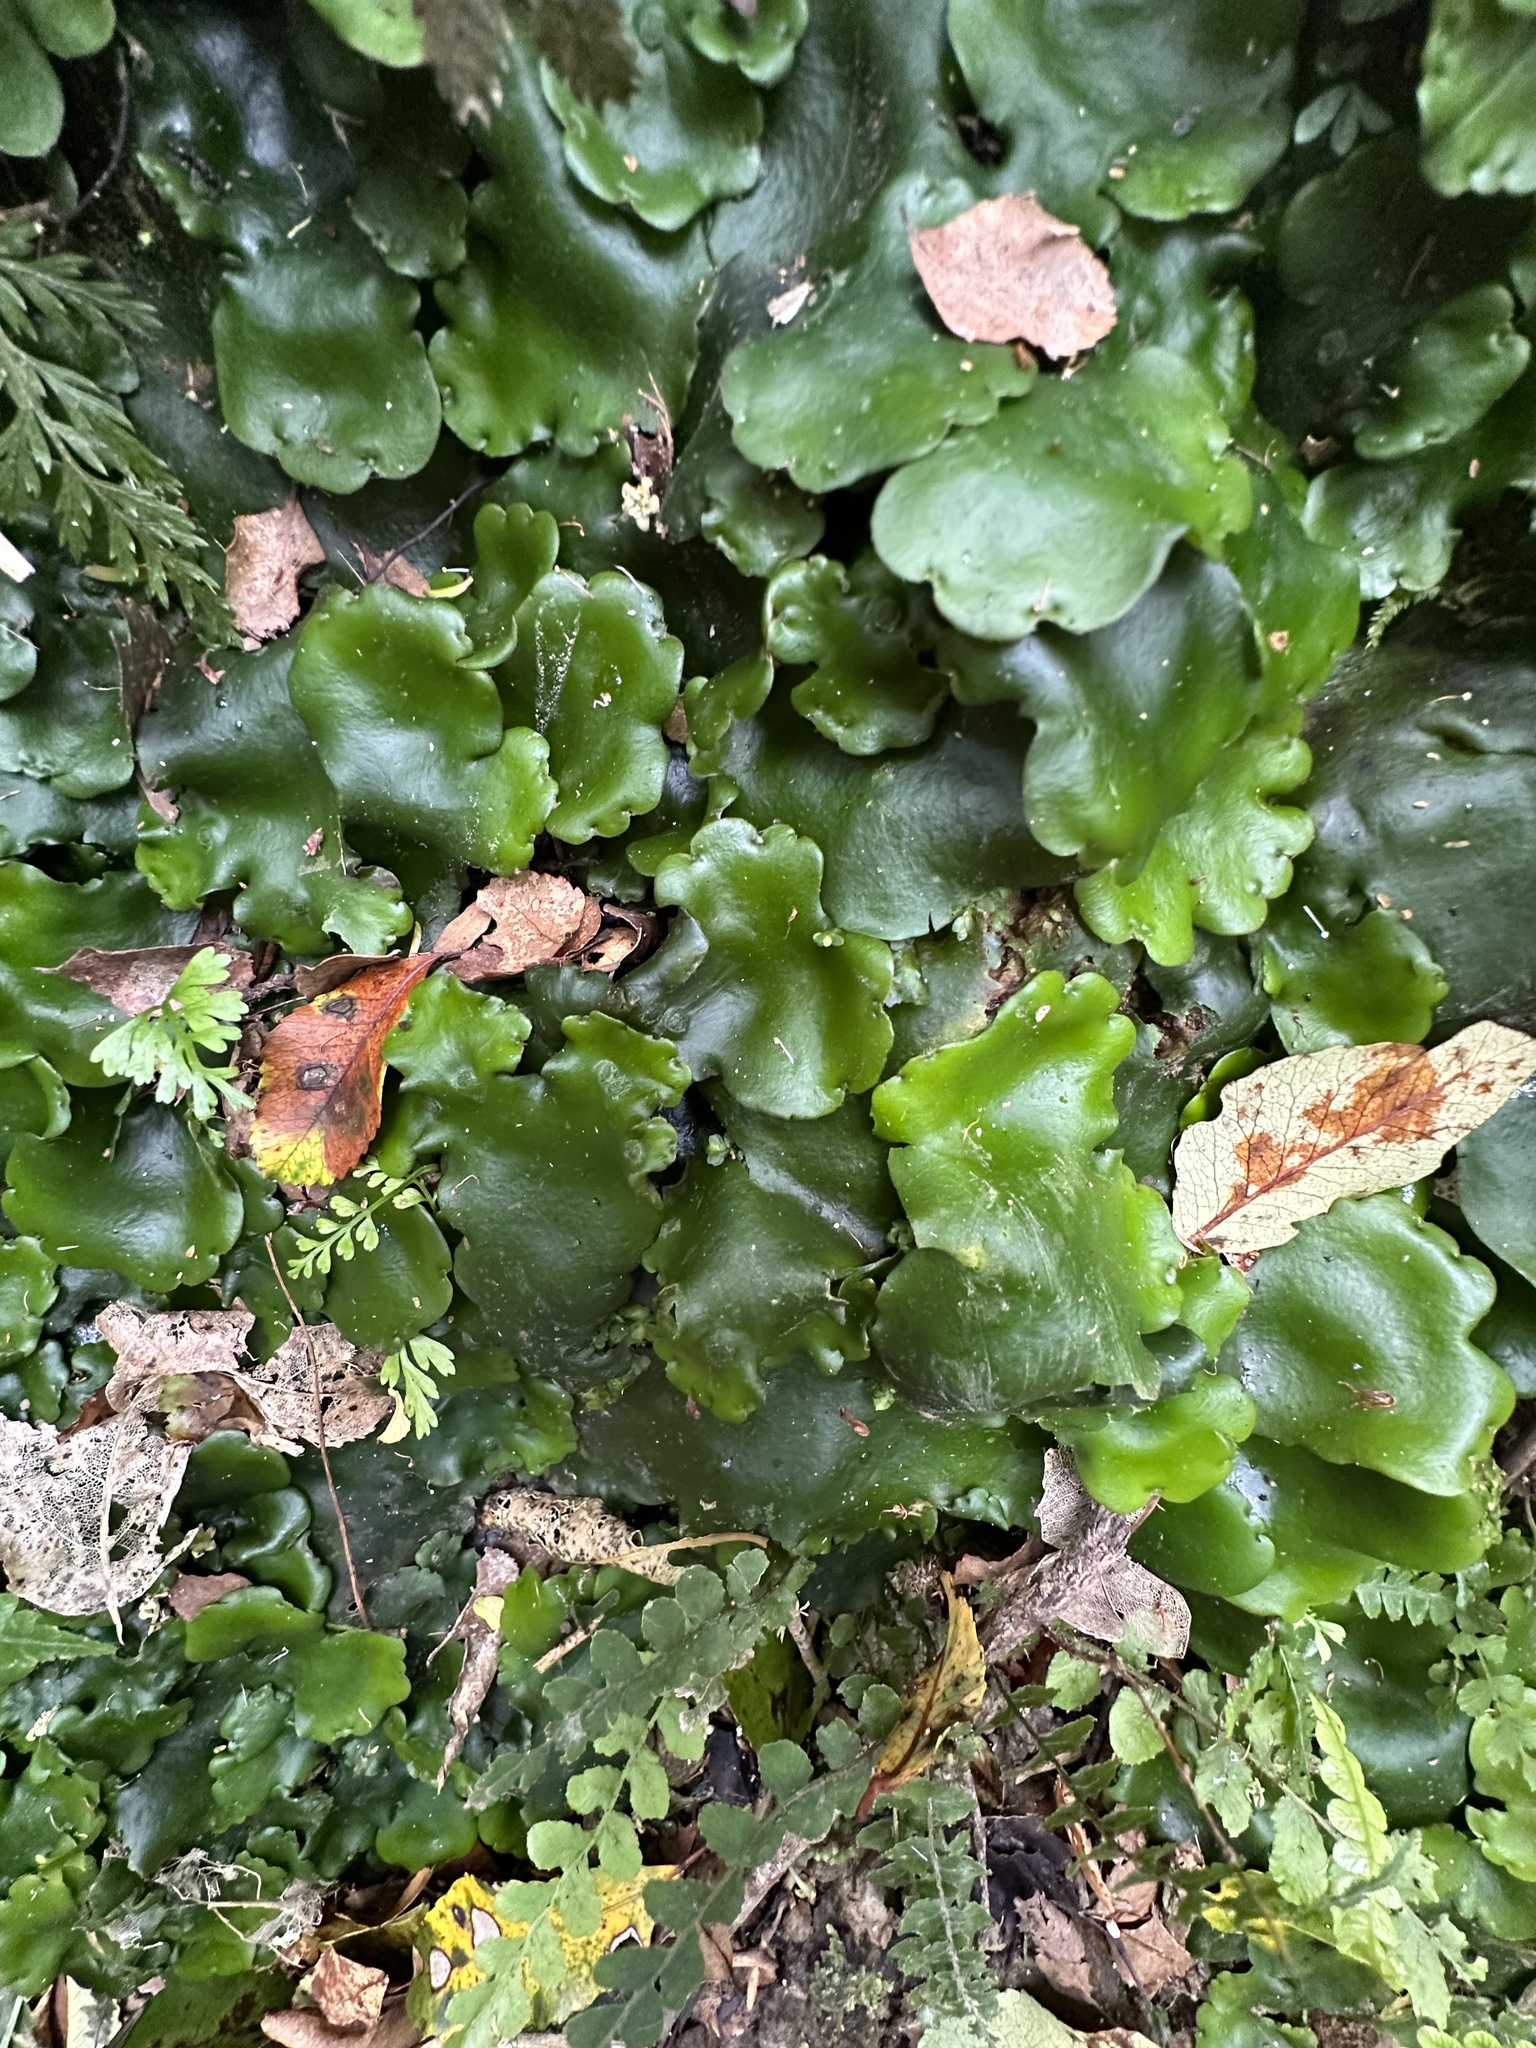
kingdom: Plantae
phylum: Marchantiophyta
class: Marchantiopsida
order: Marchantiales
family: Monocleaceae
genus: Monoclea
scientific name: Monoclea forsteri
